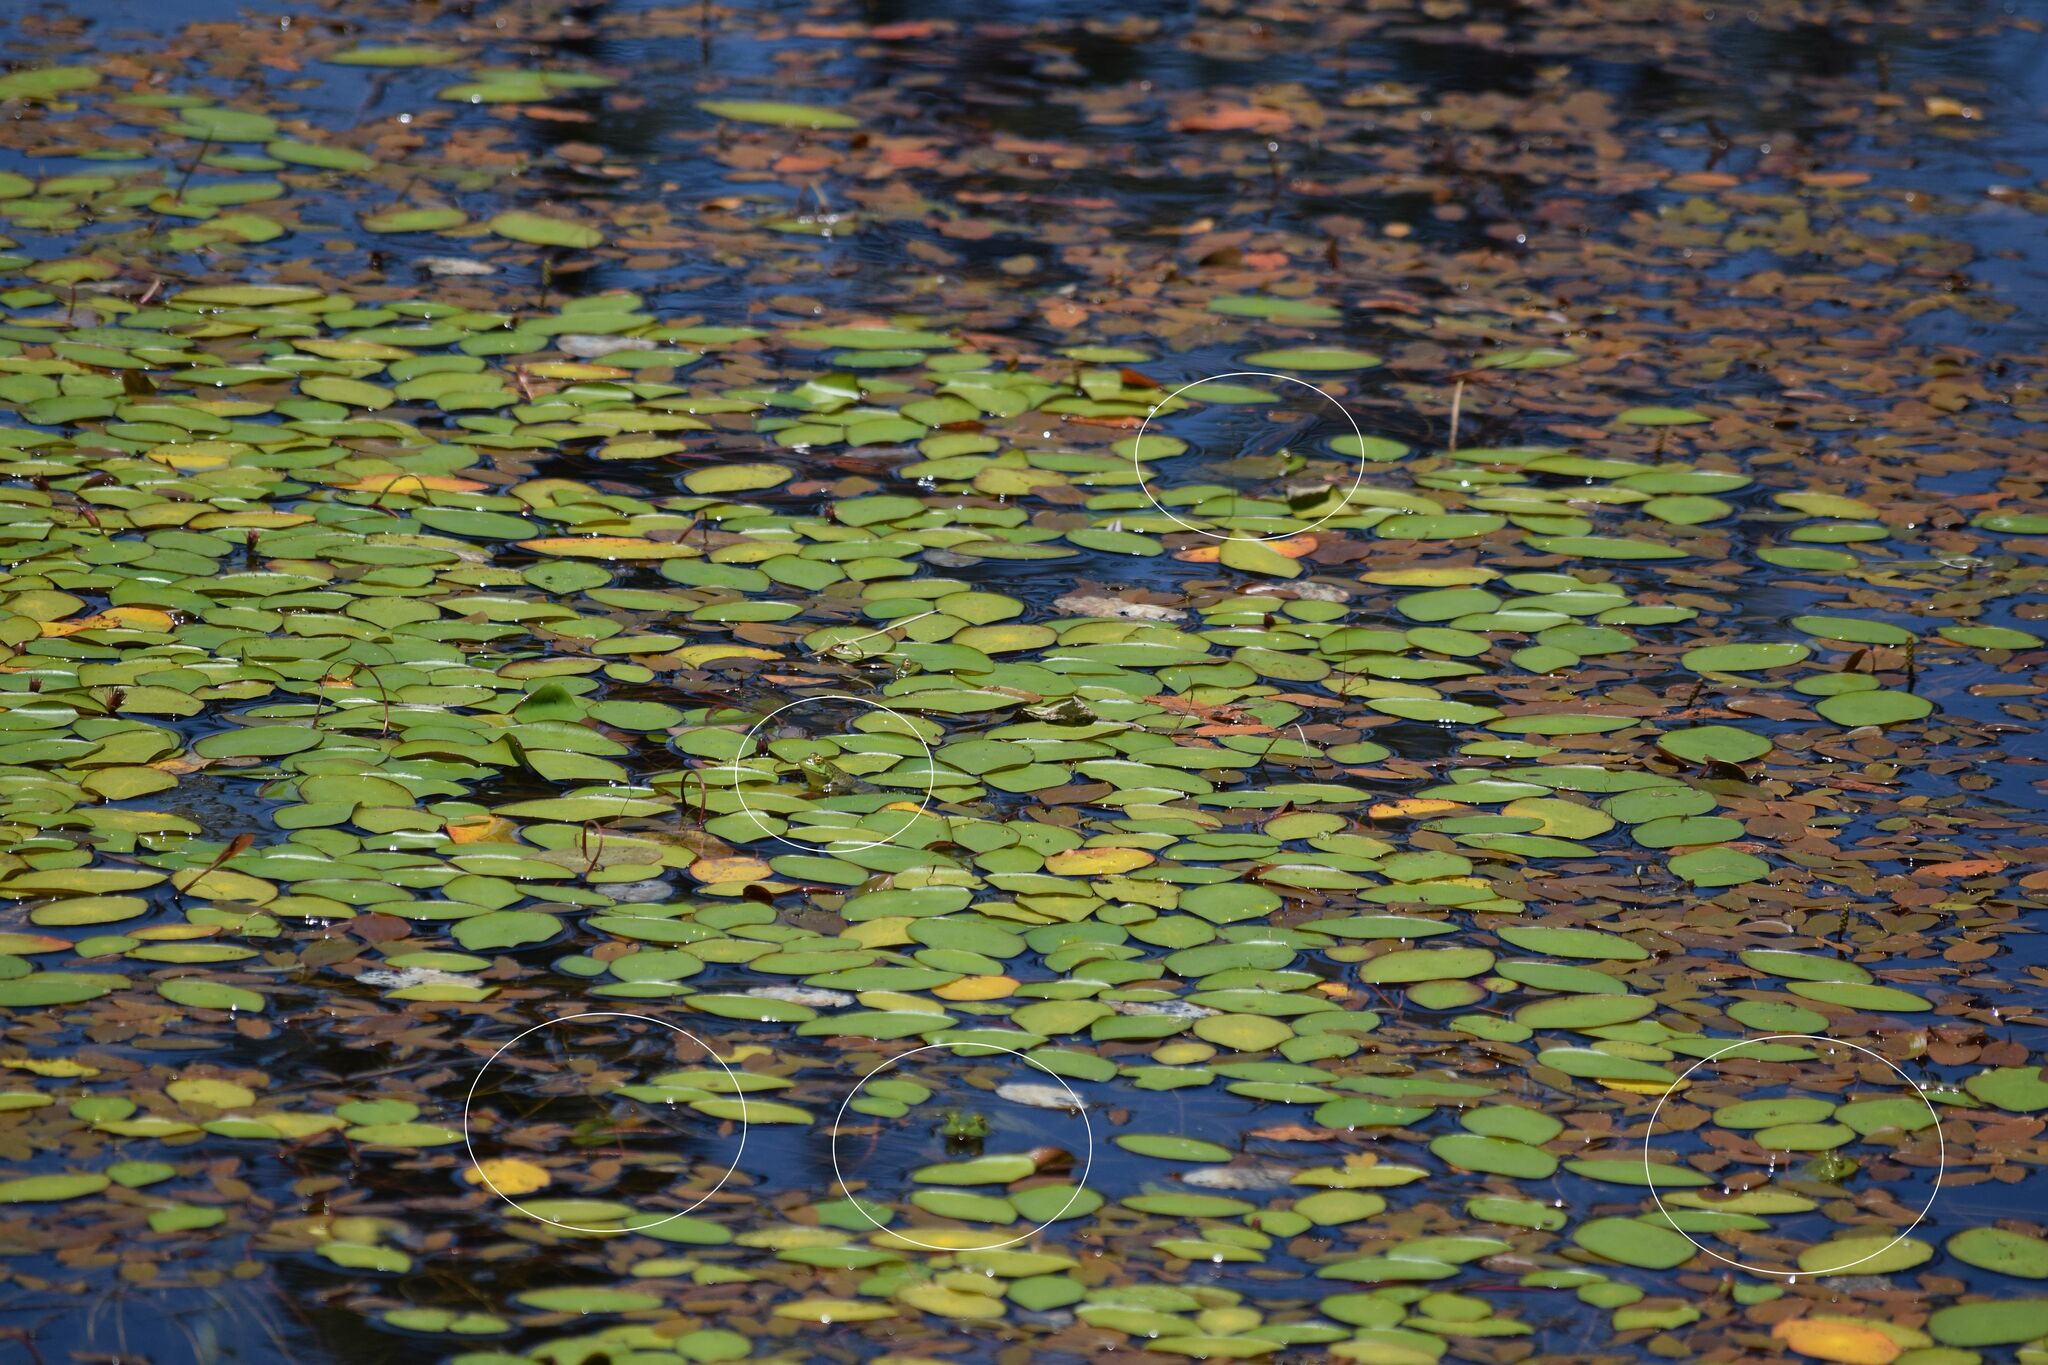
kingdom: Animalia
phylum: Chordata
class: Amphibia
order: Anura
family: Ranidae
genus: Lithobates
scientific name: Lithobates catesbeianus
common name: American bullfrog
